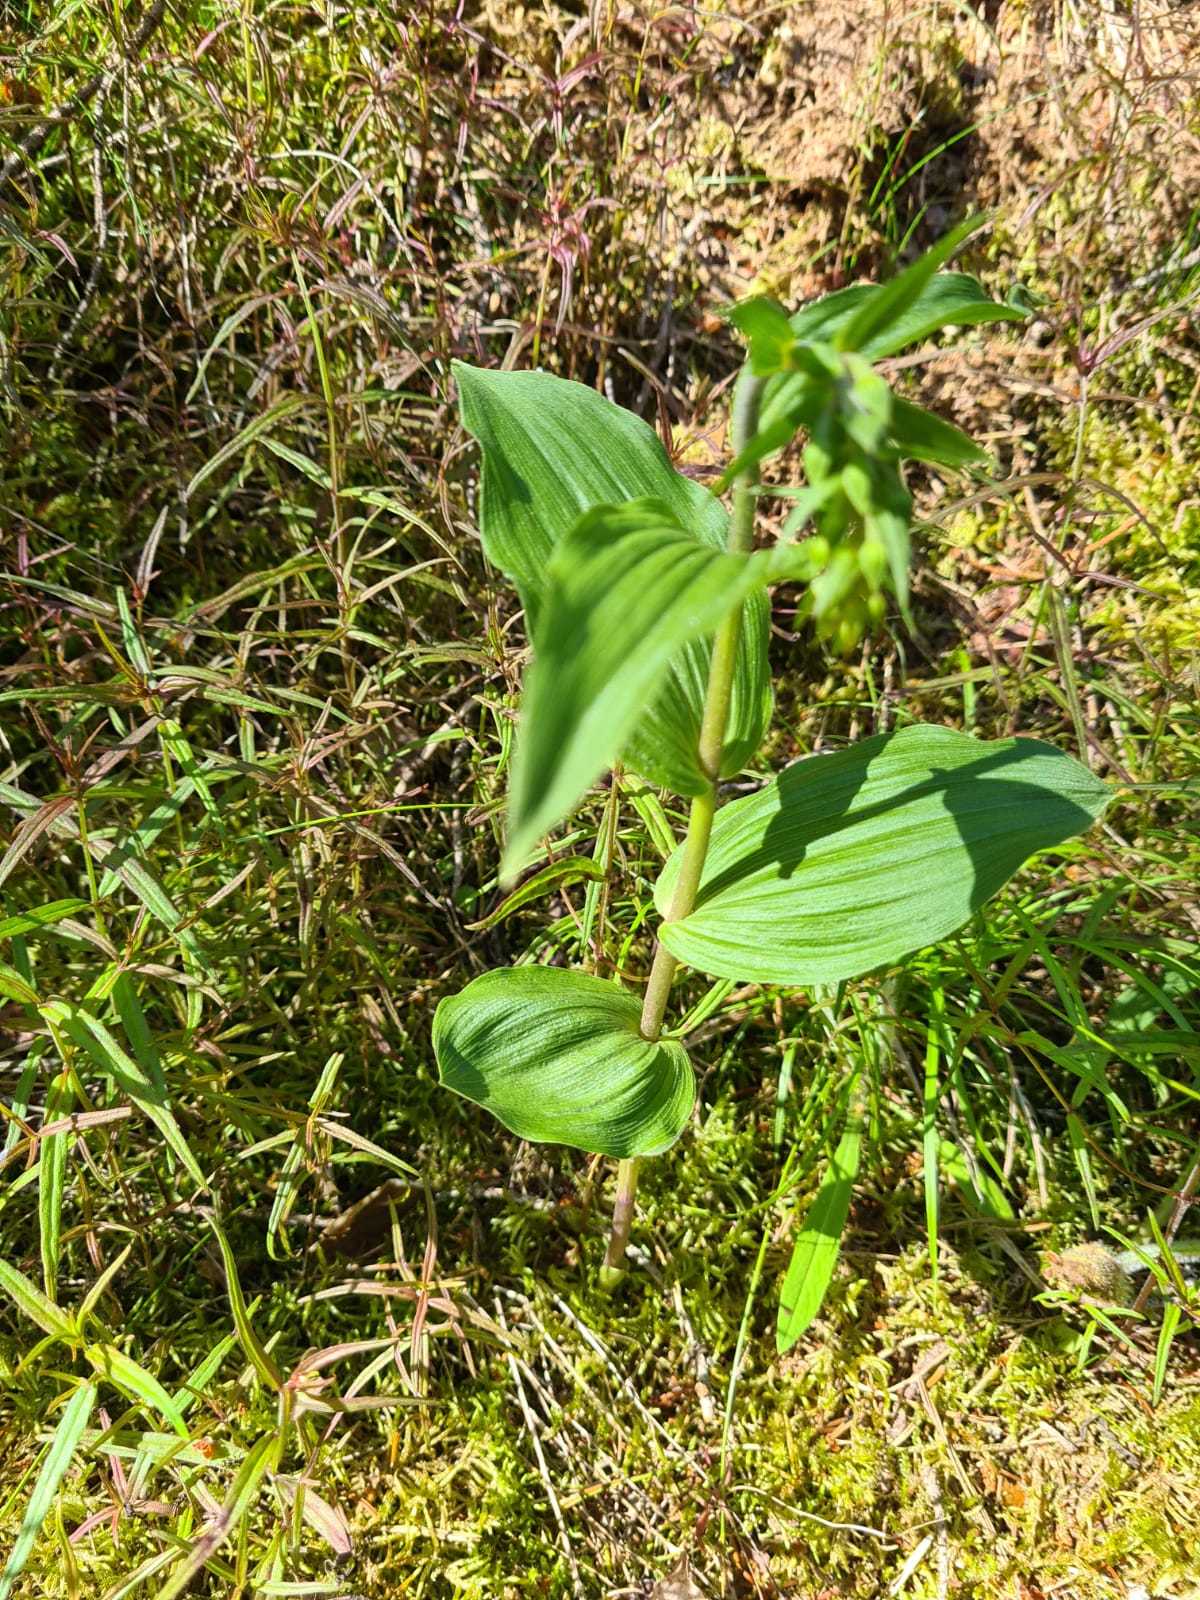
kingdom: Plantae
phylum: Tracheophyta
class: Liliopsida
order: Asparagales
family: Orchidaceae
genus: Epipactis
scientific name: Epipactis helleborine
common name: Broad-leaved helleborine
